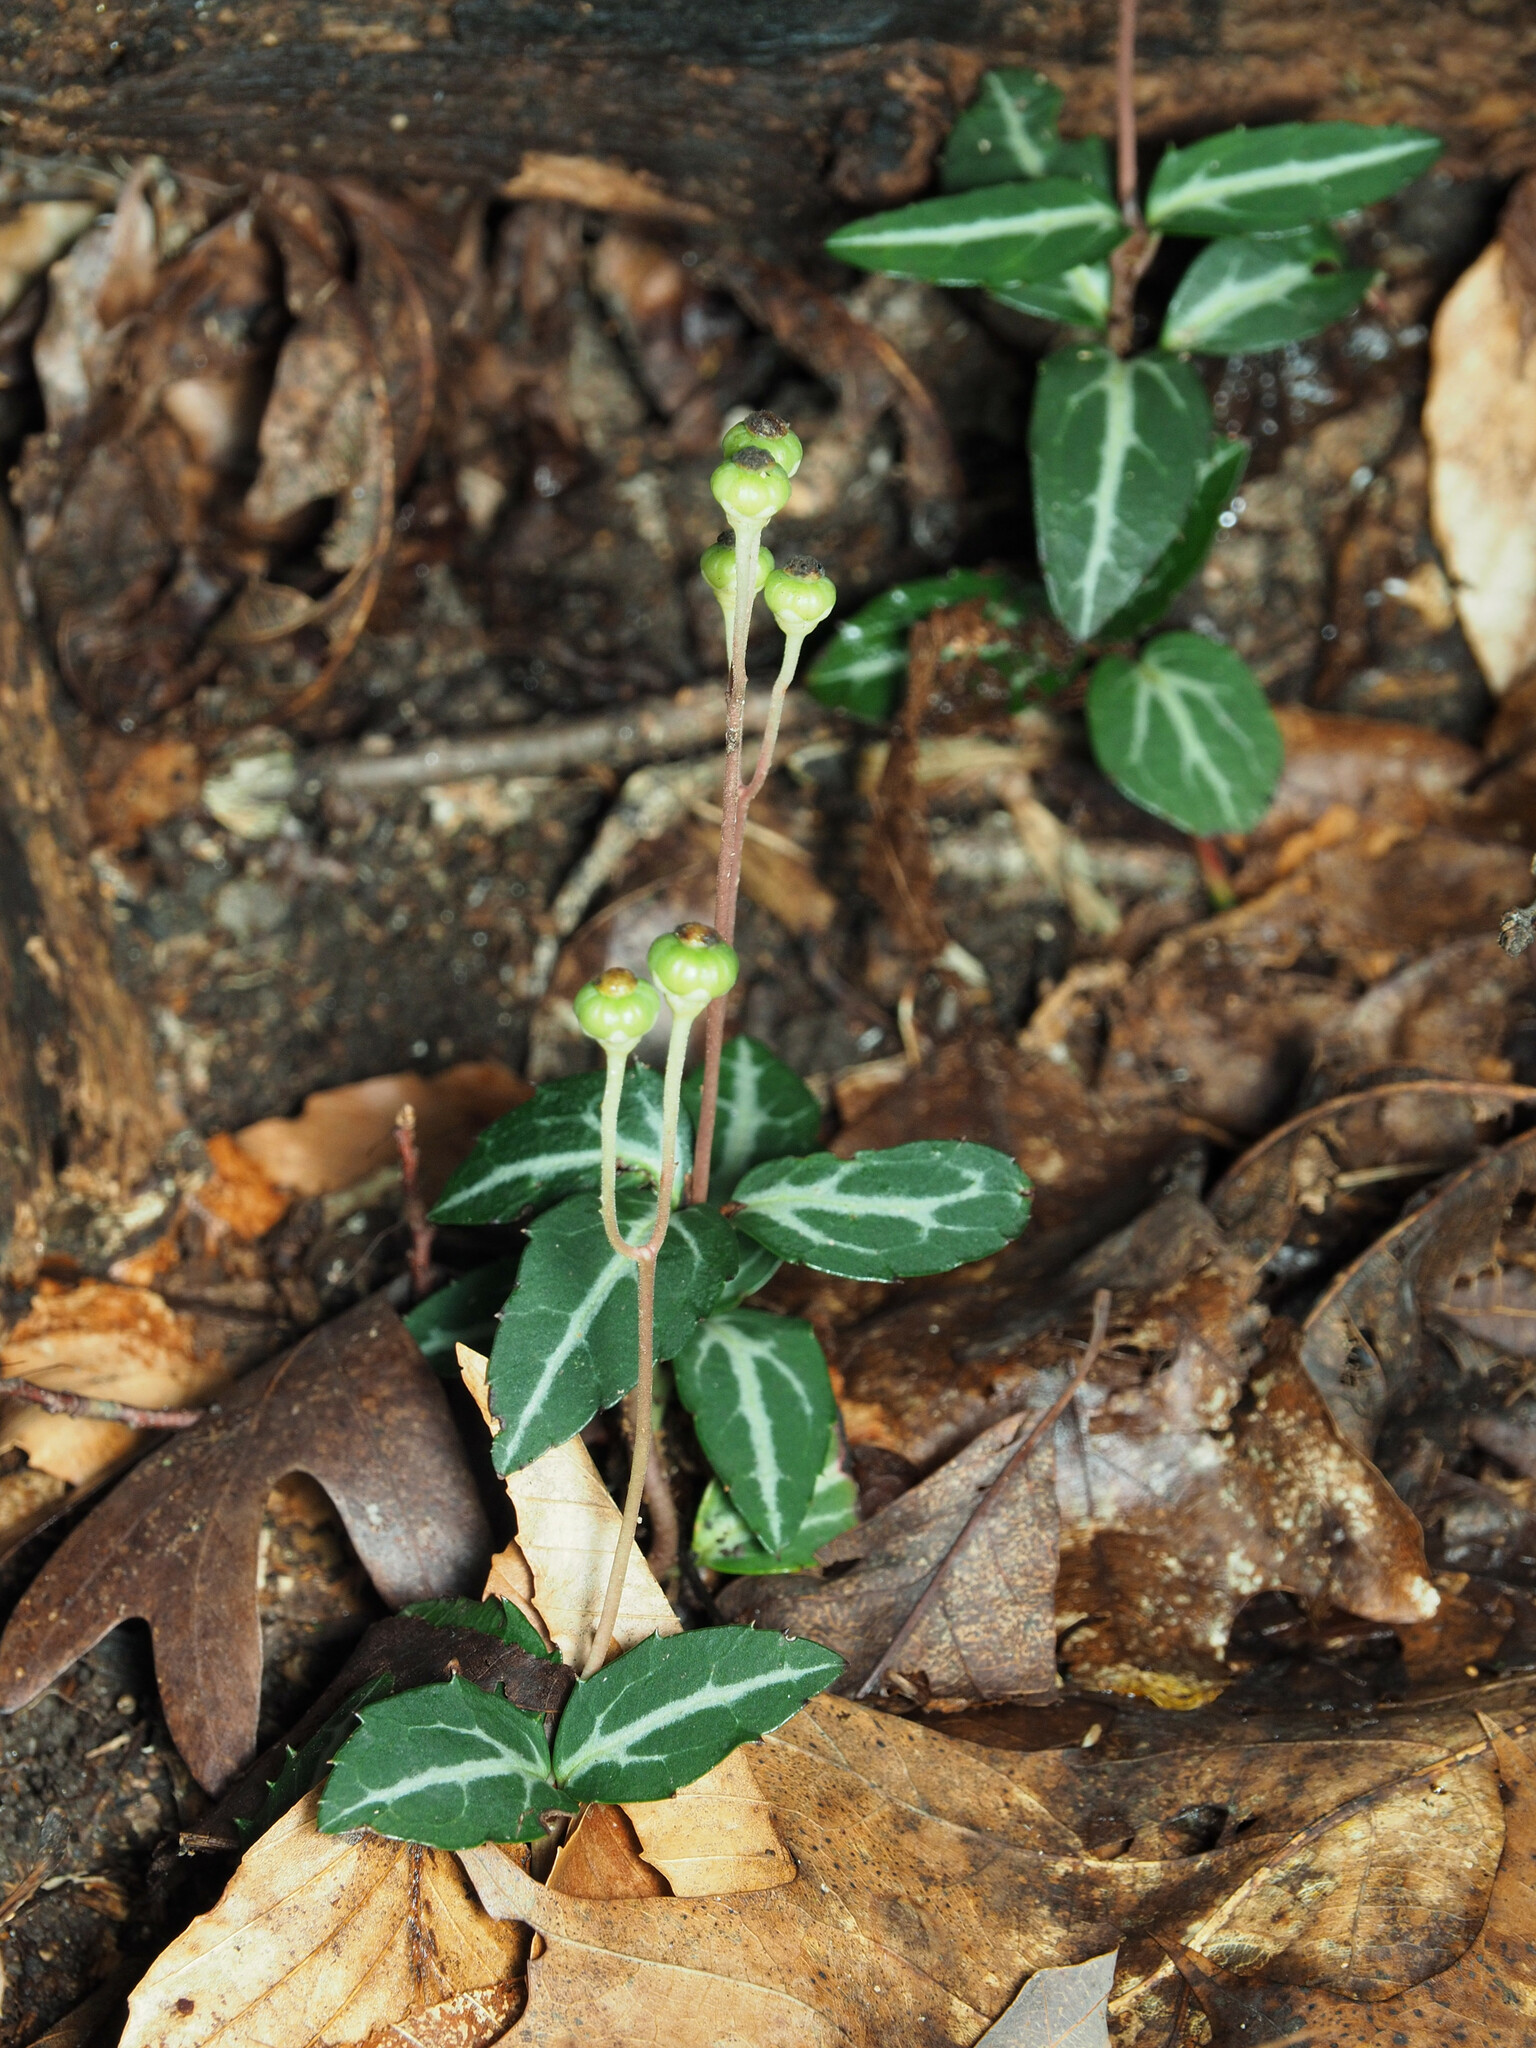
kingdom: Plantae
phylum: Tracheophyta
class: Magnoliopsida
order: Ericales
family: Ericaceae
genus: Chimaphila
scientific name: Chimaphila maculata
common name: Spotted pipsissewa
